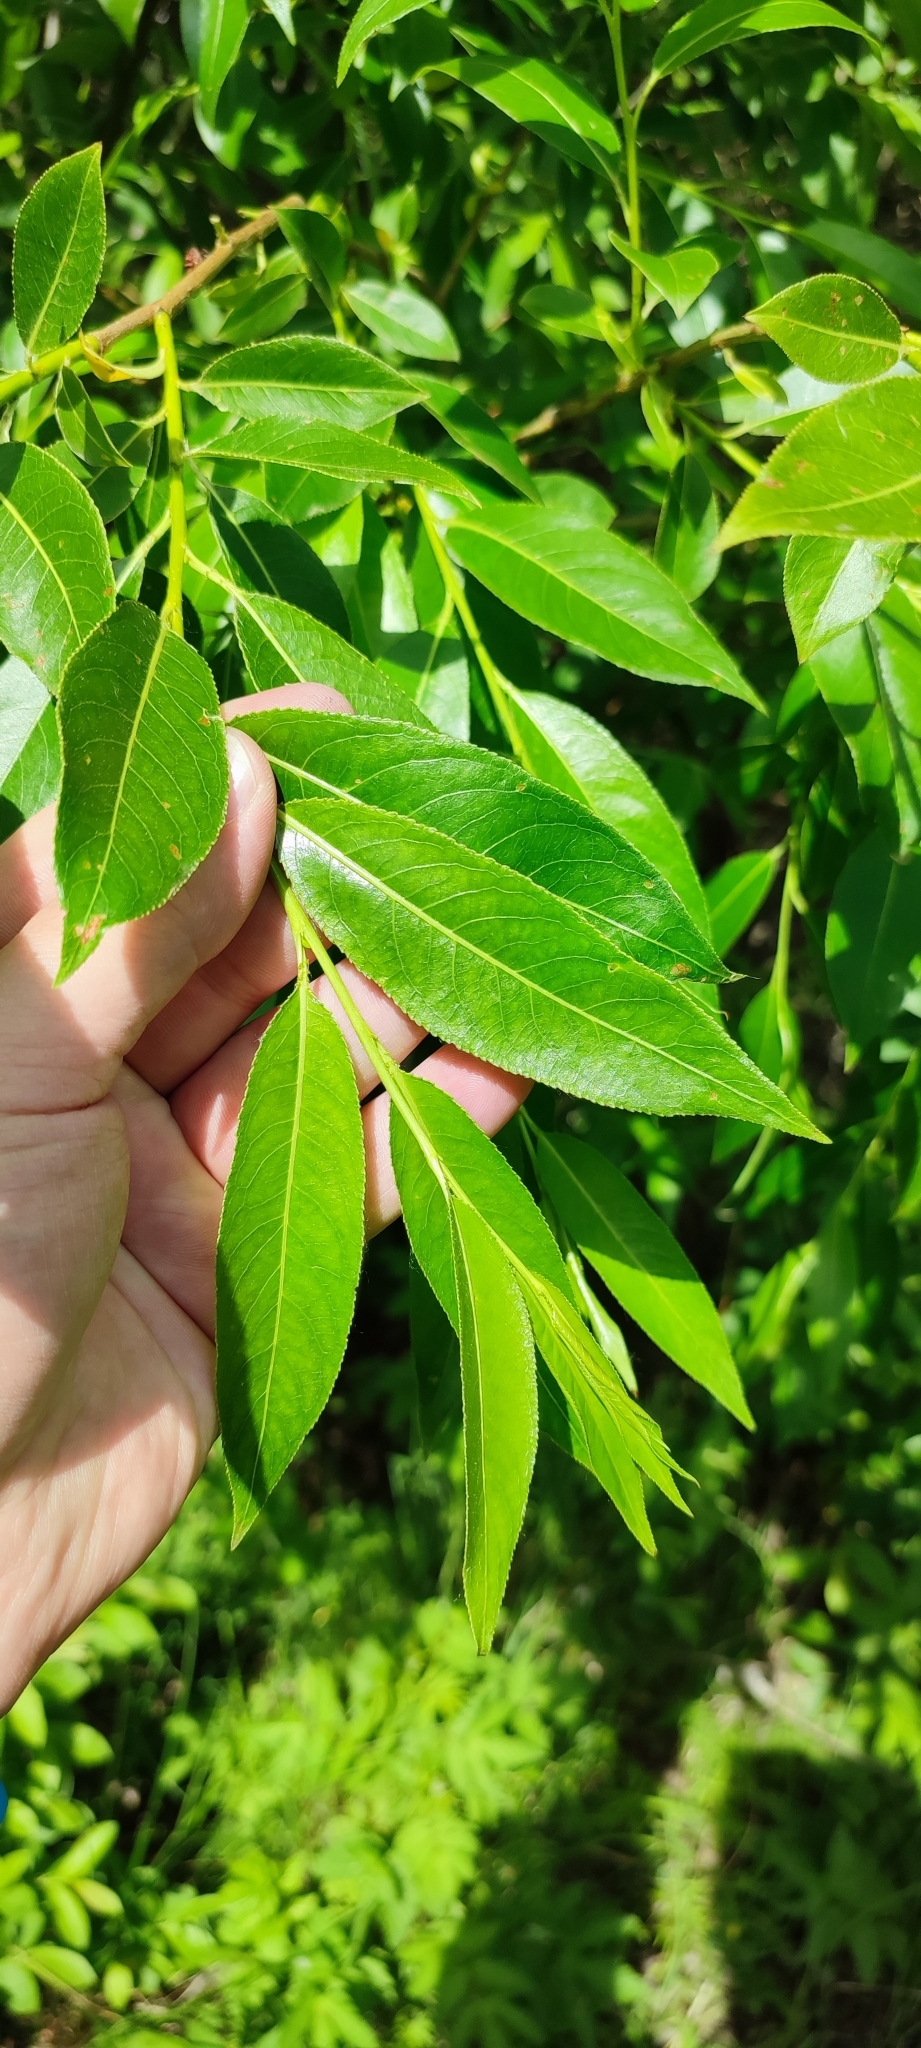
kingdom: Plantae
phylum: Tracheophyta
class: Magnoliopsida
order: Malpighiales
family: Salicaceae
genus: Salix
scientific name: Salix triandra
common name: Almond willow
